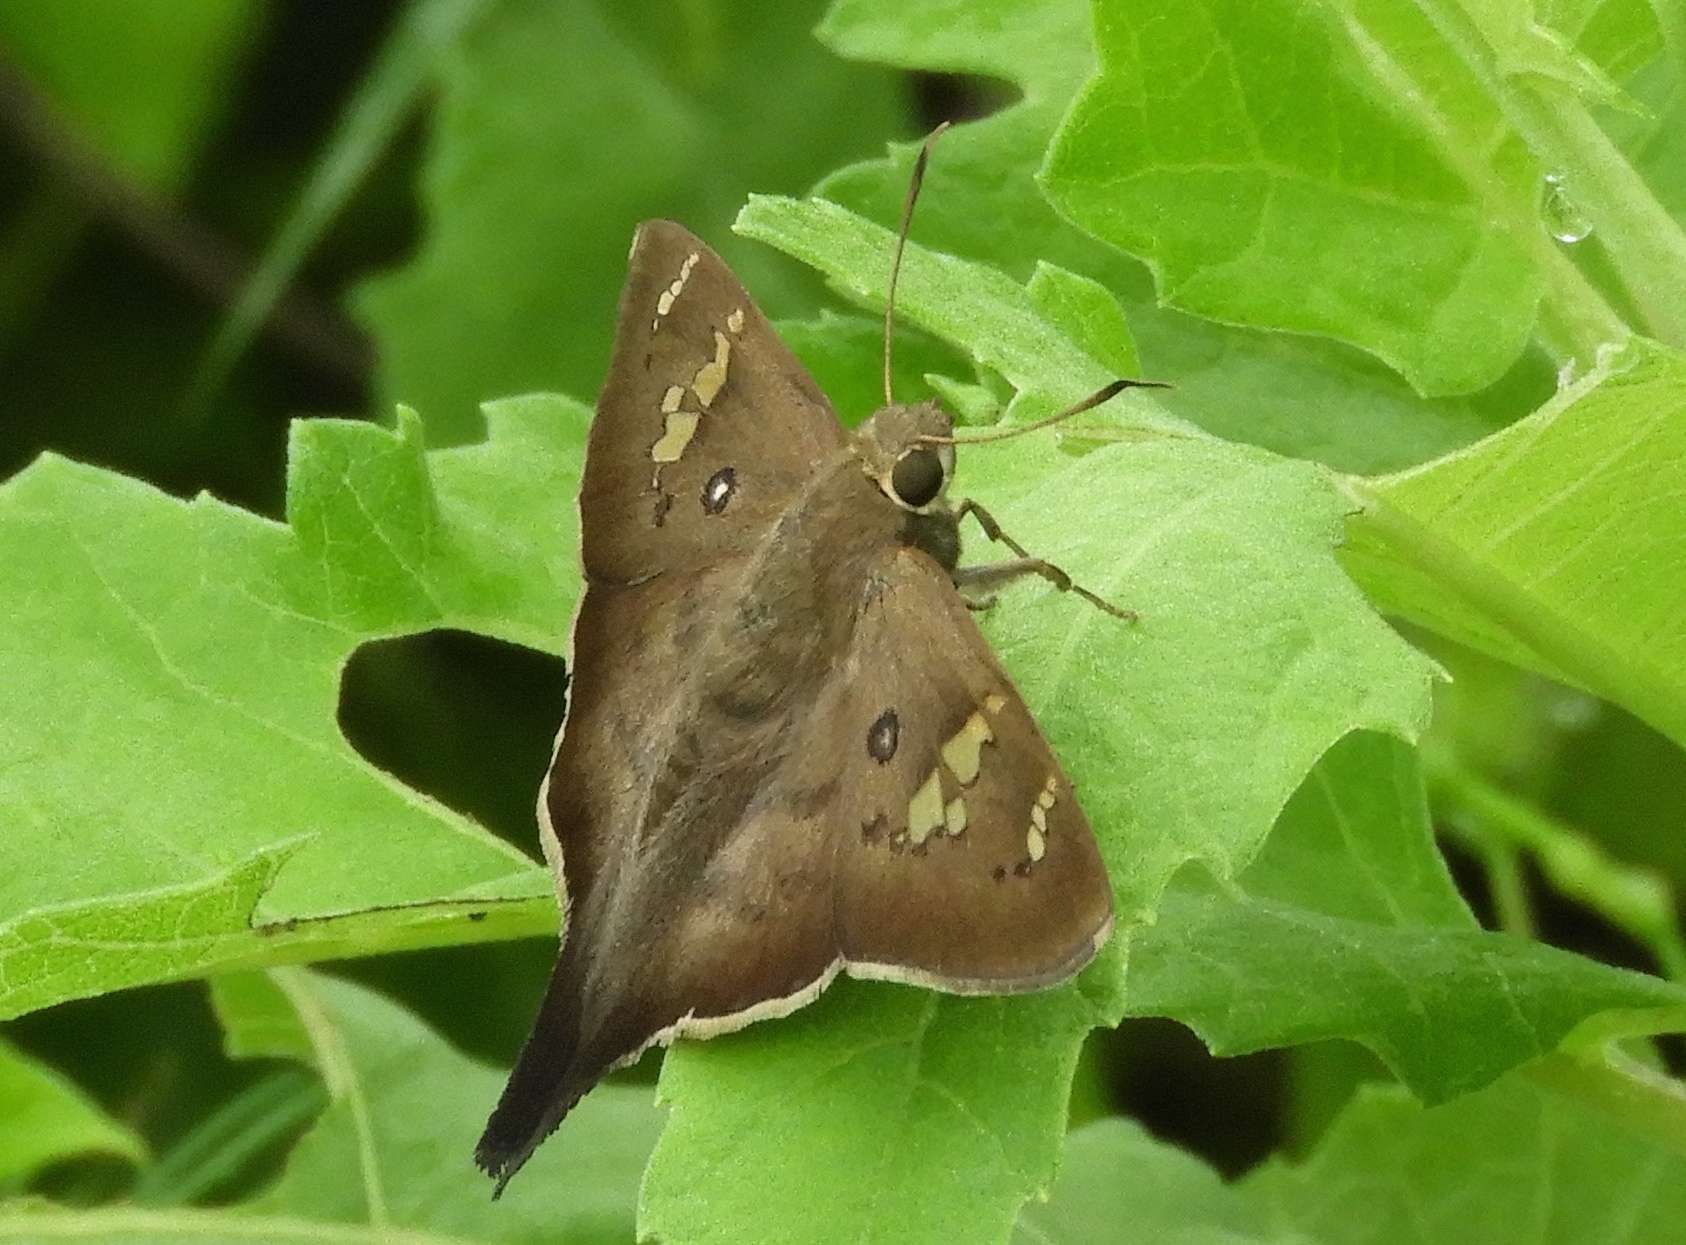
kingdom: Animalia
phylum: Arthropoda
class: Insecta
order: Lepidoptera
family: Hesperiidae
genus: Ectomis
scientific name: Ectomis
